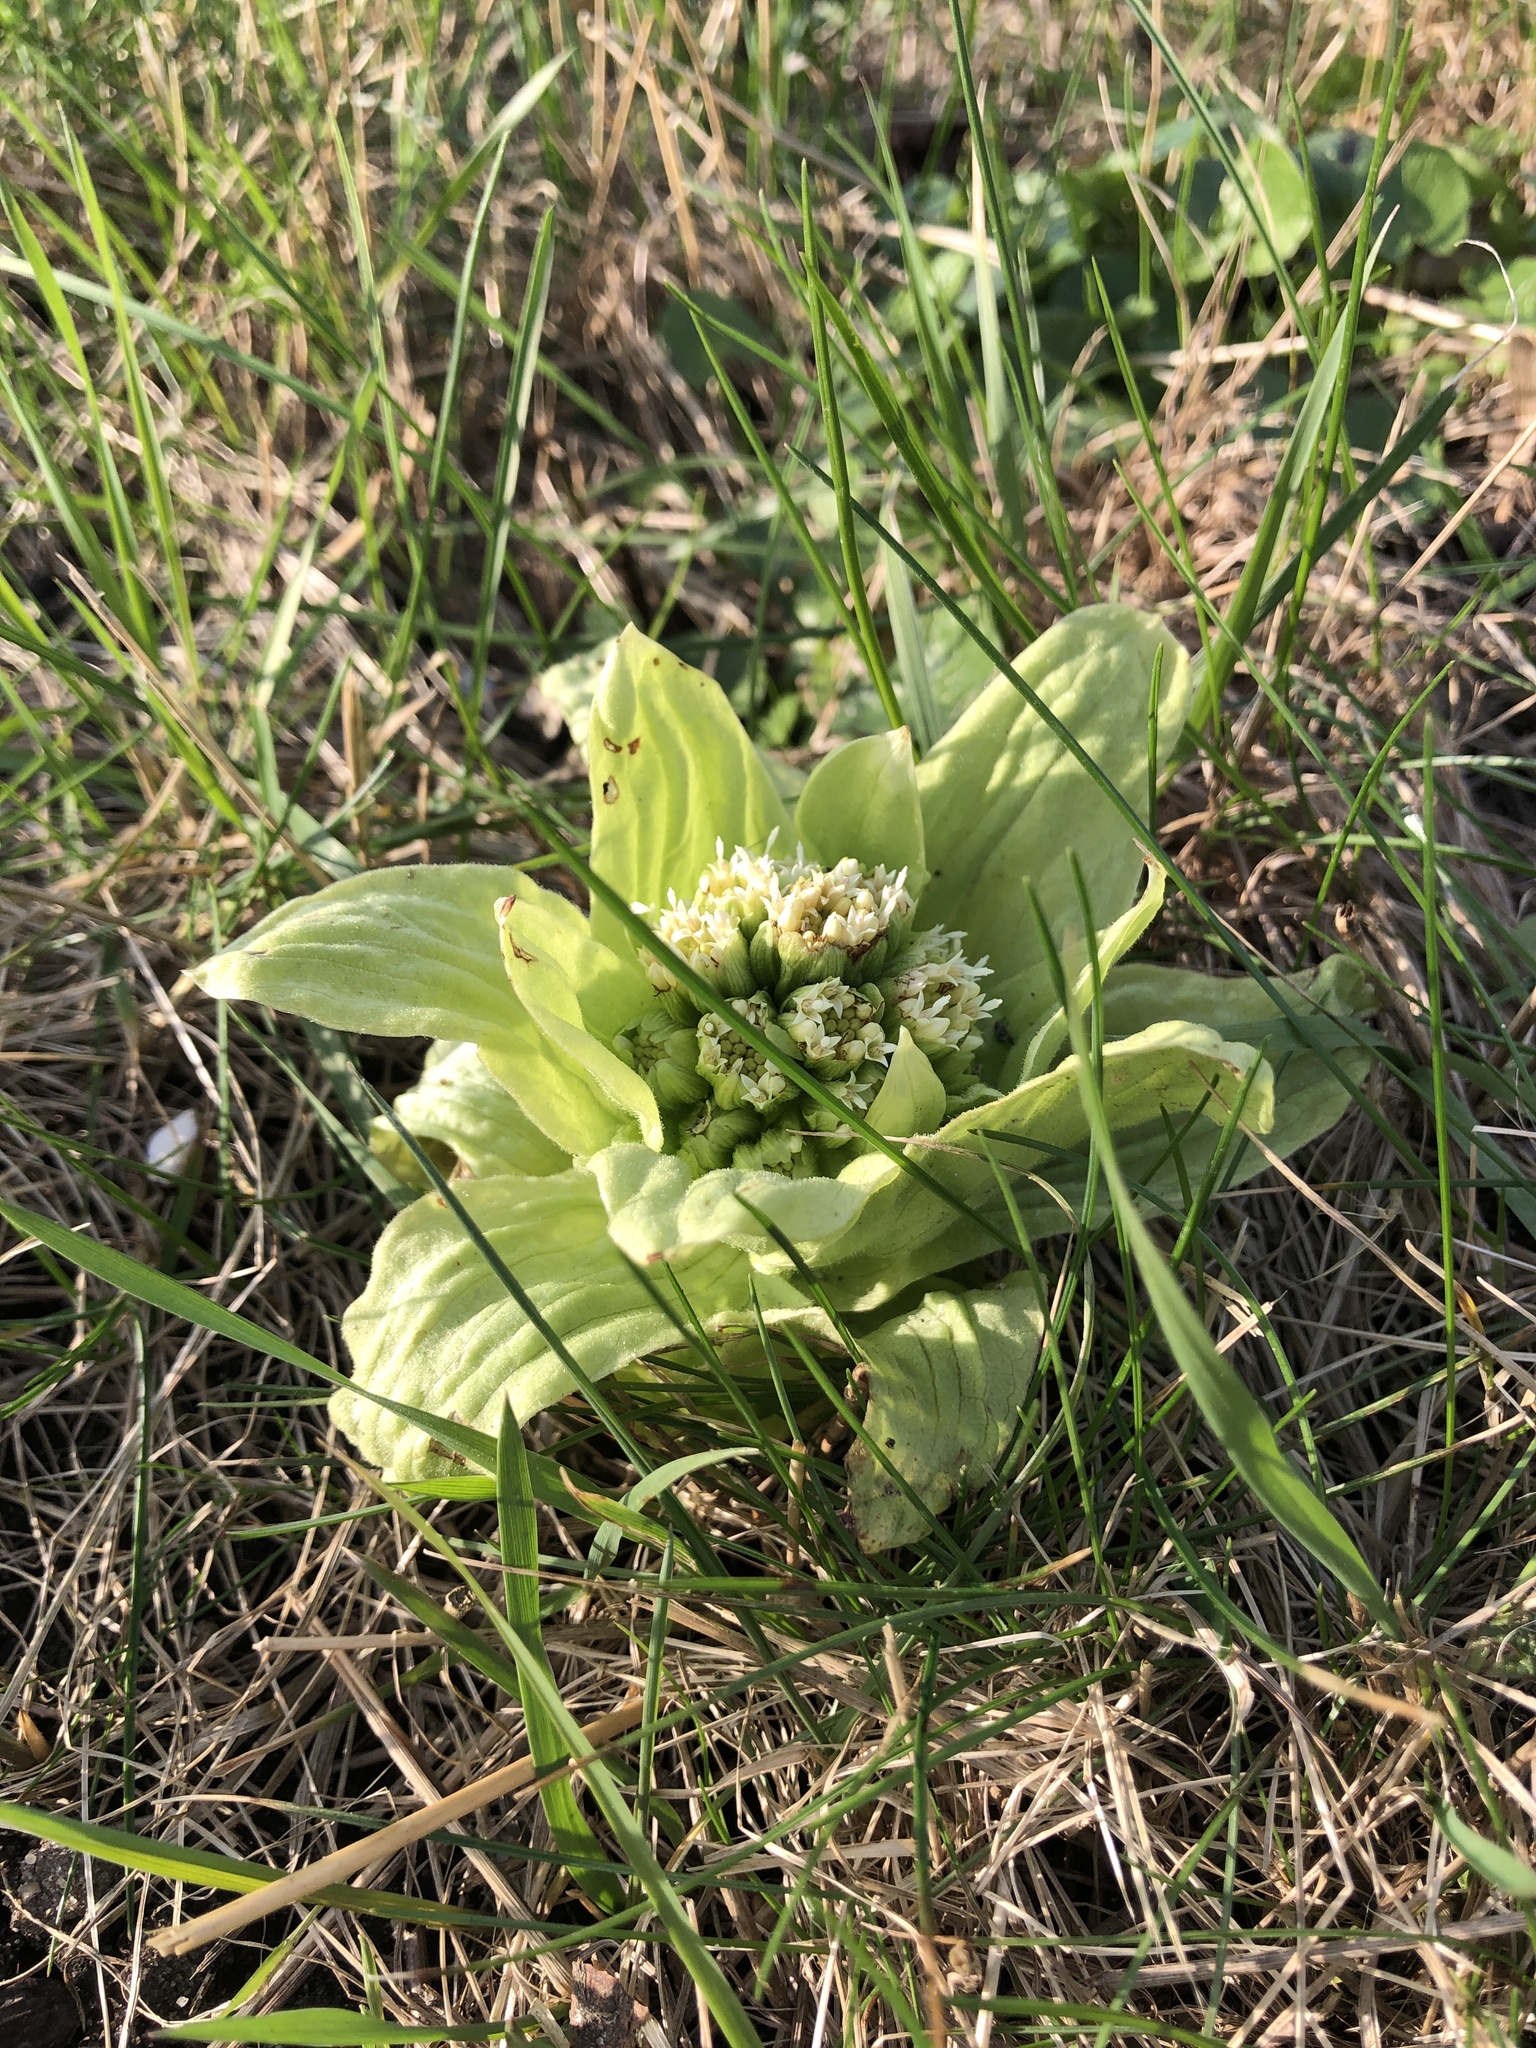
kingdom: Plantae
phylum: Tracheophyta
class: Magnoliopsida
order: Asterales
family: Asteraceae
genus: Petasites
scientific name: Petasites japonicus
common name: Giant butterbur
